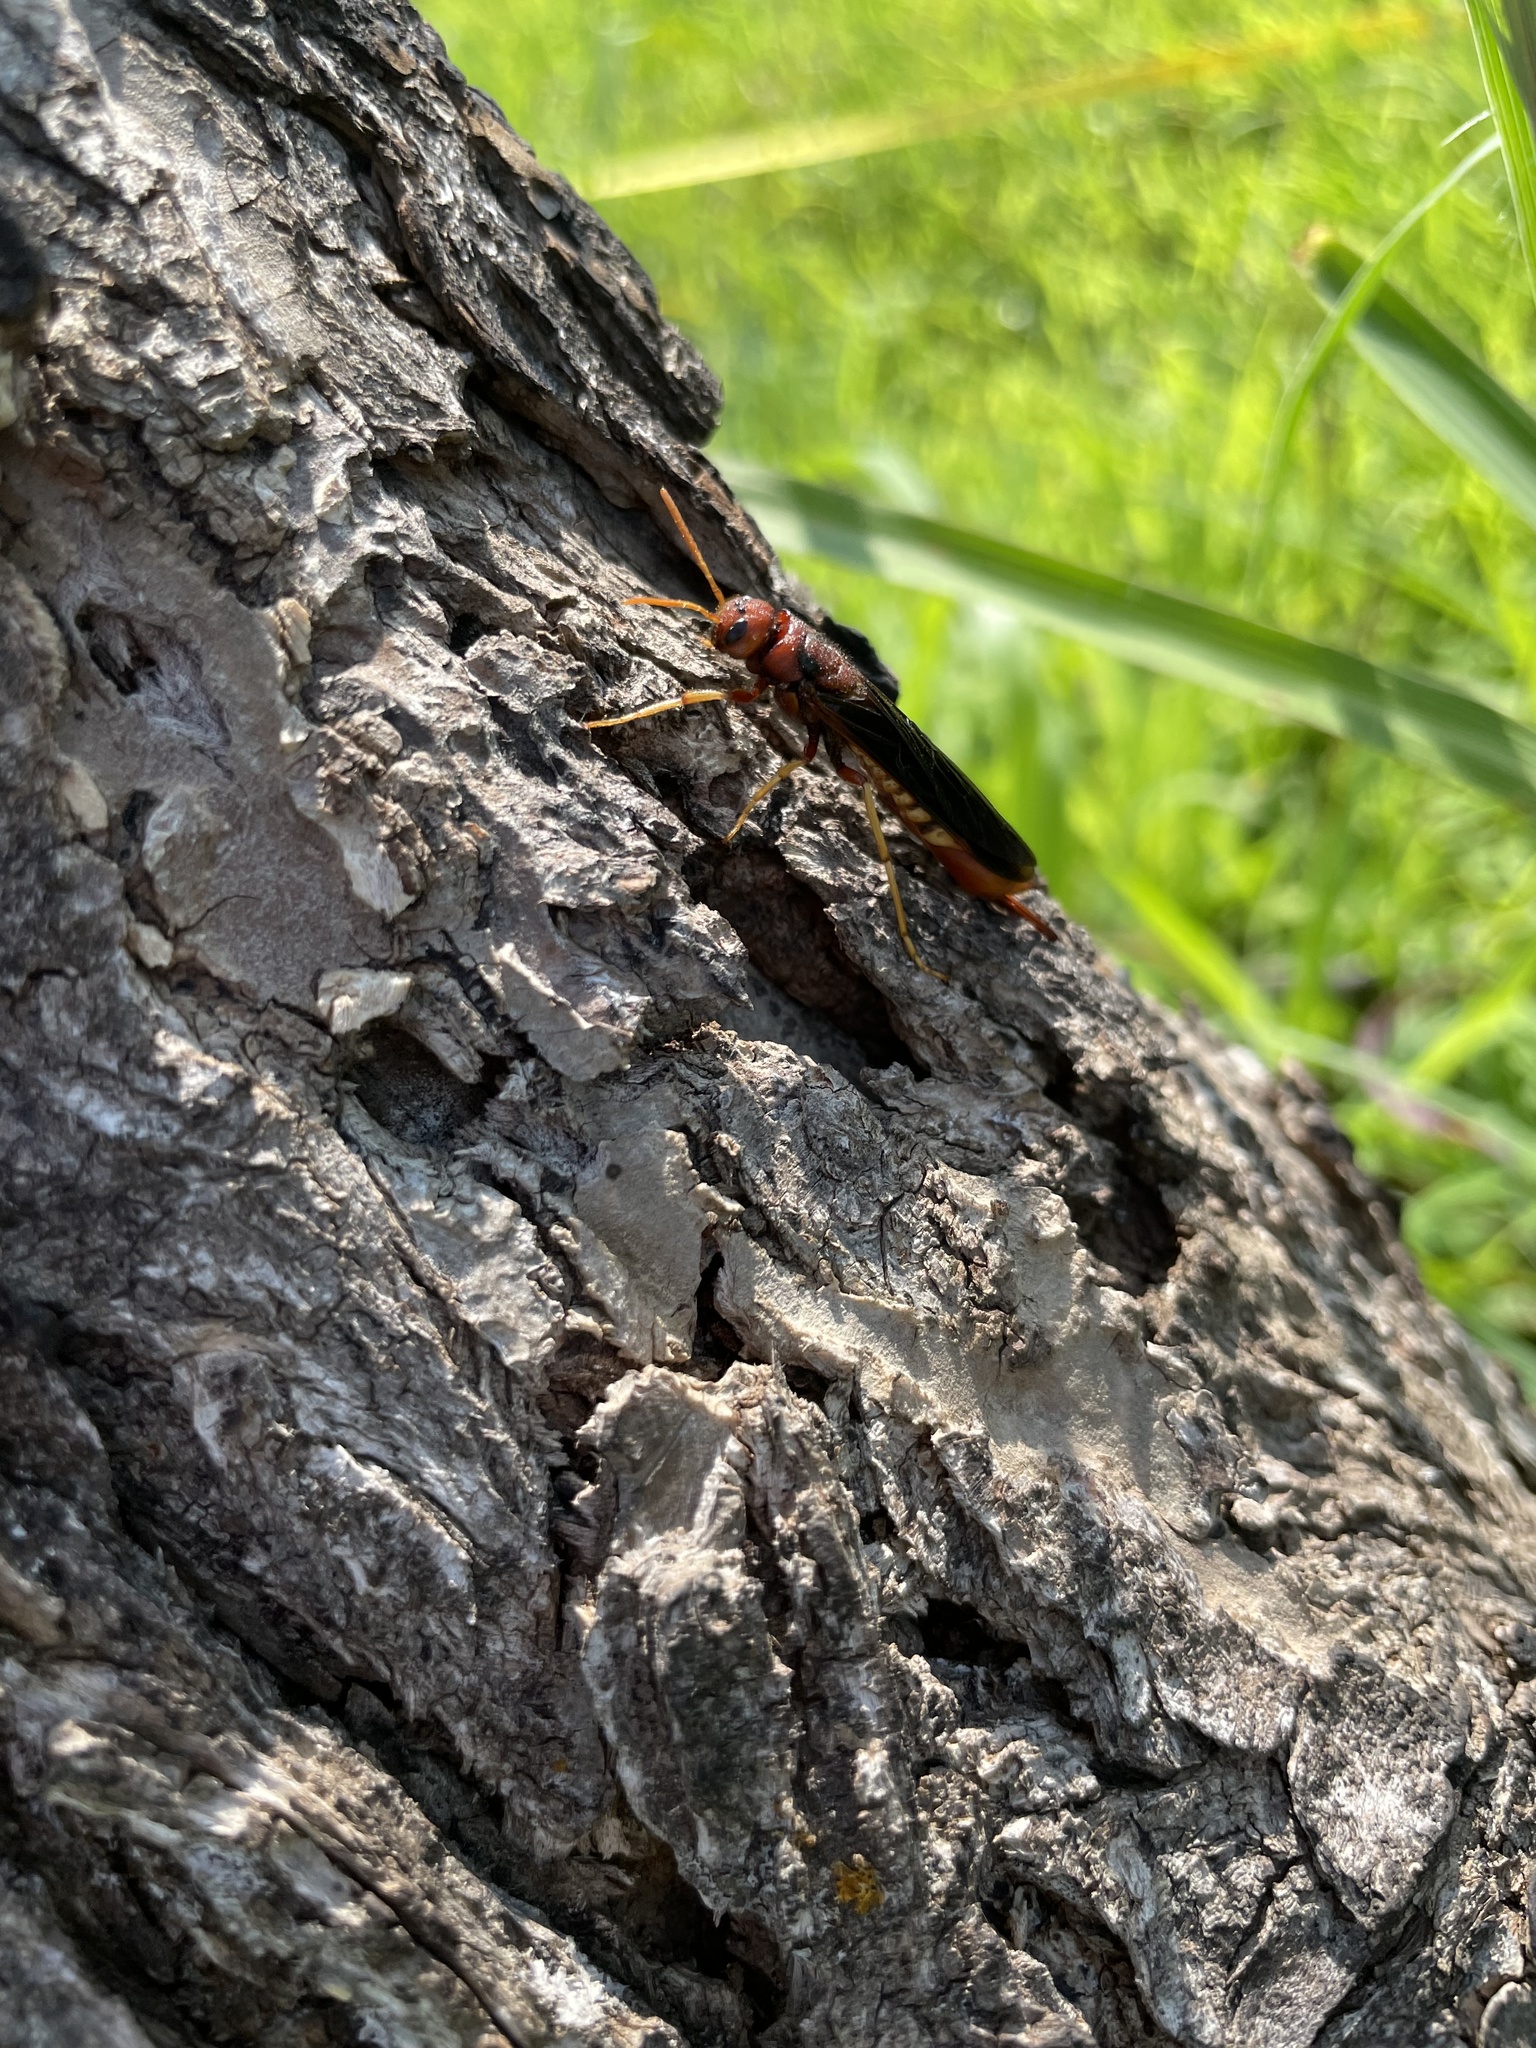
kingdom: Animalia
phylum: Arthropoda
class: Insecta
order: Hymenoptera
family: Siricidae
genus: Tremex
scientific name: Tremex columba
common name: Wasp
